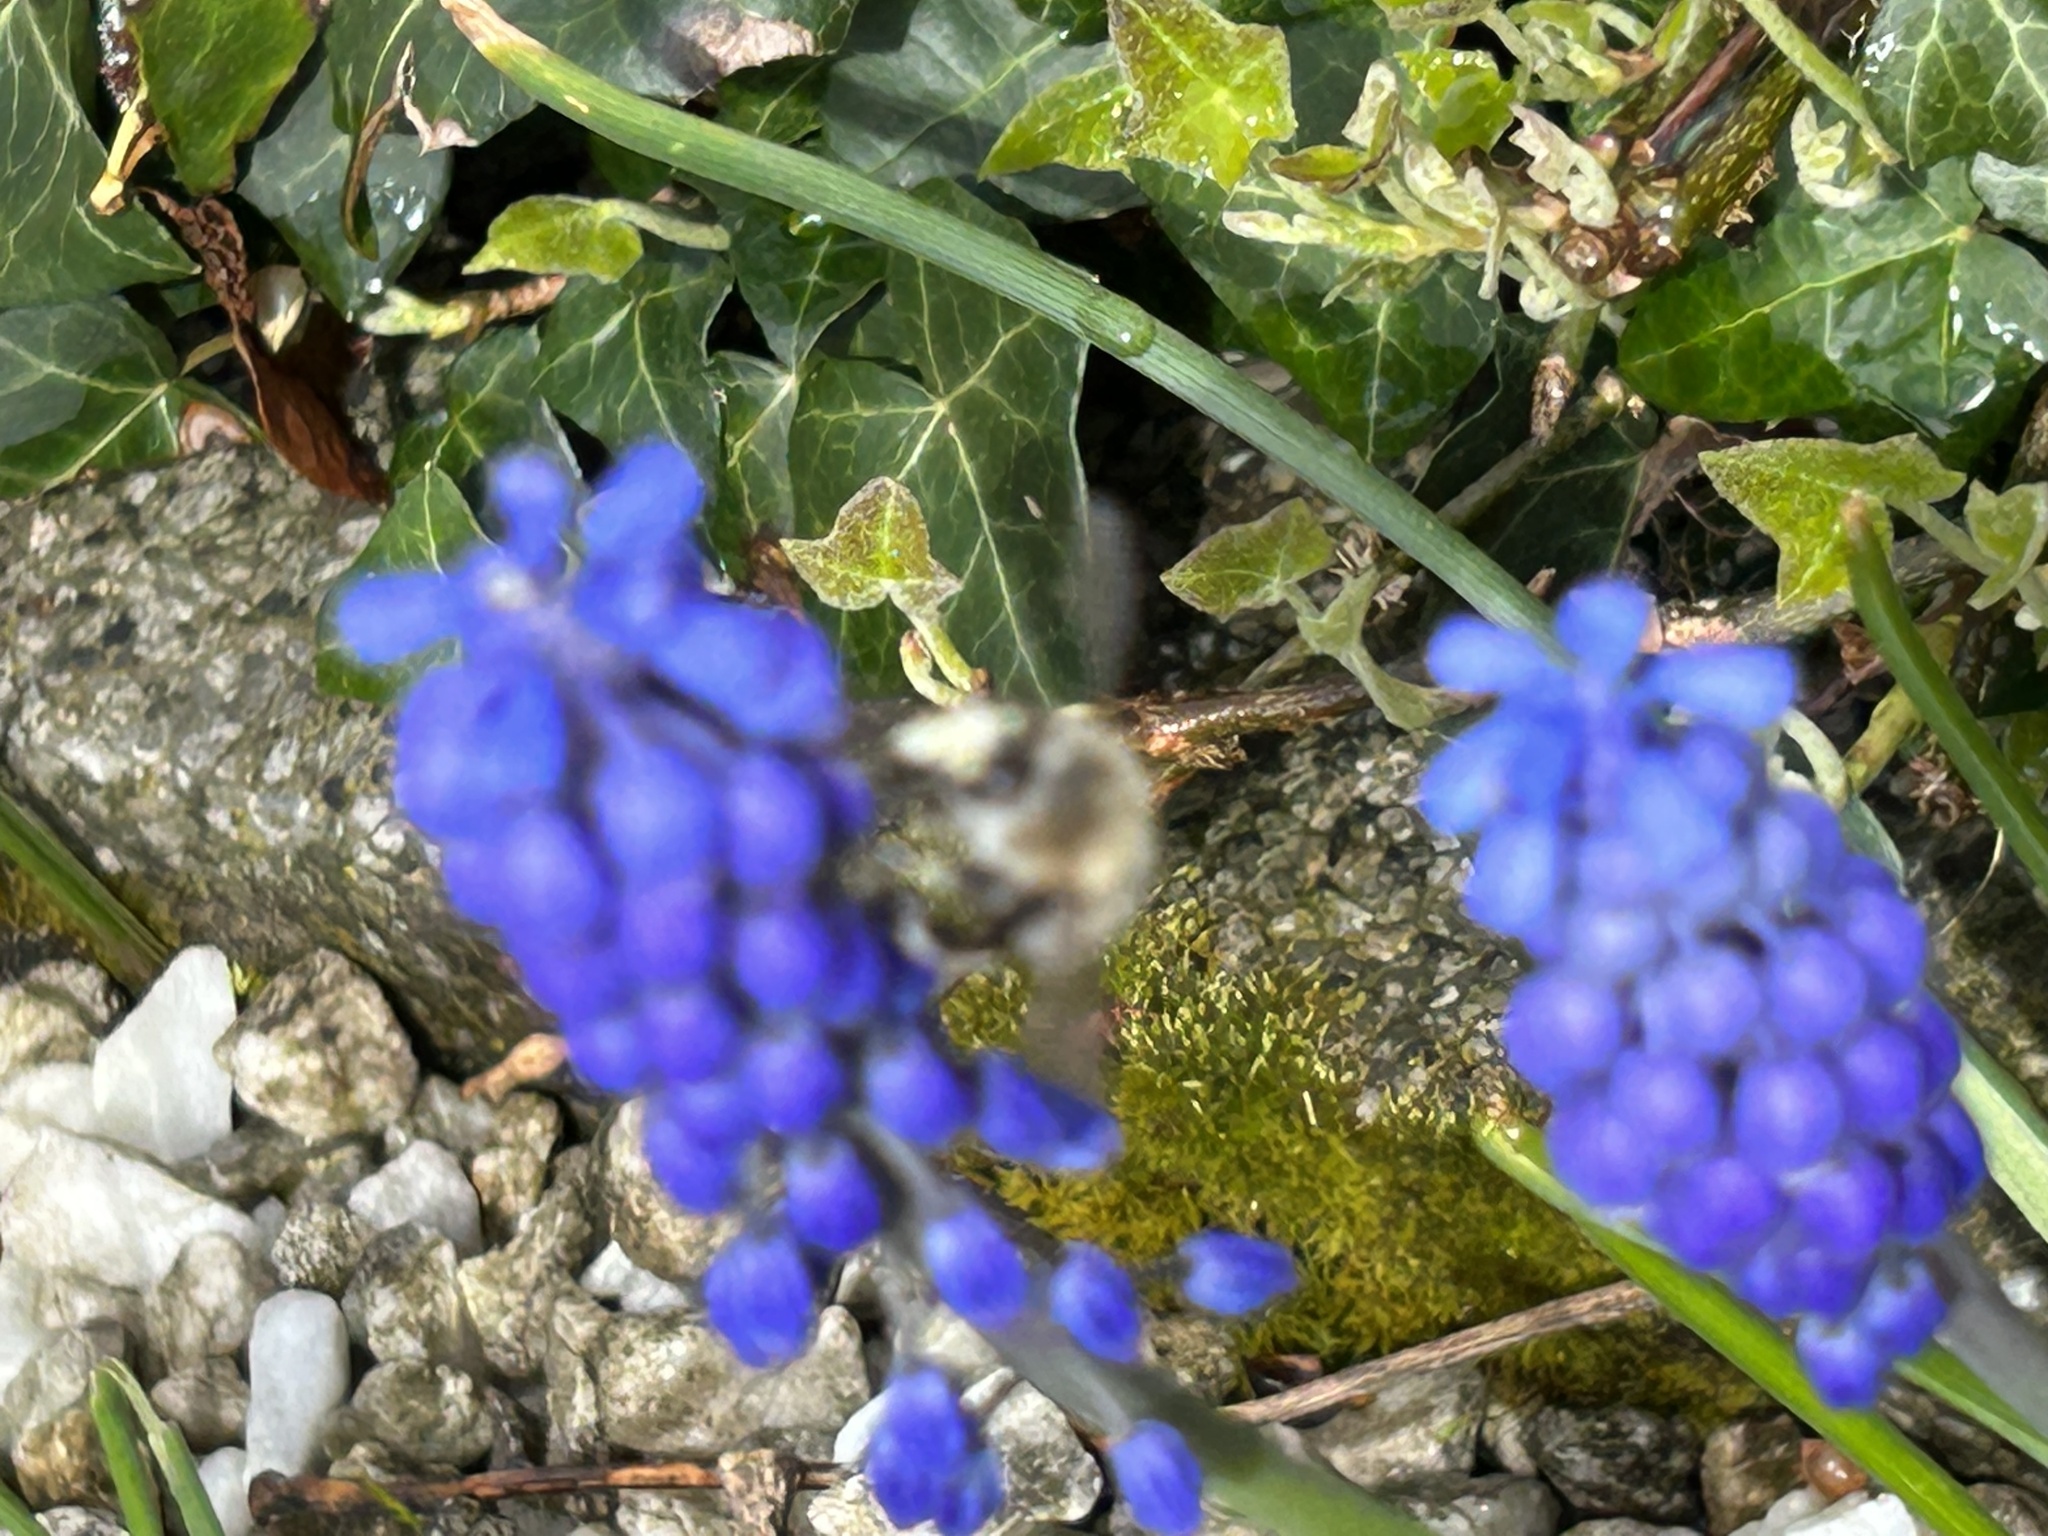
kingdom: Animalia
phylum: Arthropoda
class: Insecta
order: Hymenoptera
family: Apidae
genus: Anthophora
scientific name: Anthophora plumipes
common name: Hairy-footed flower bee
